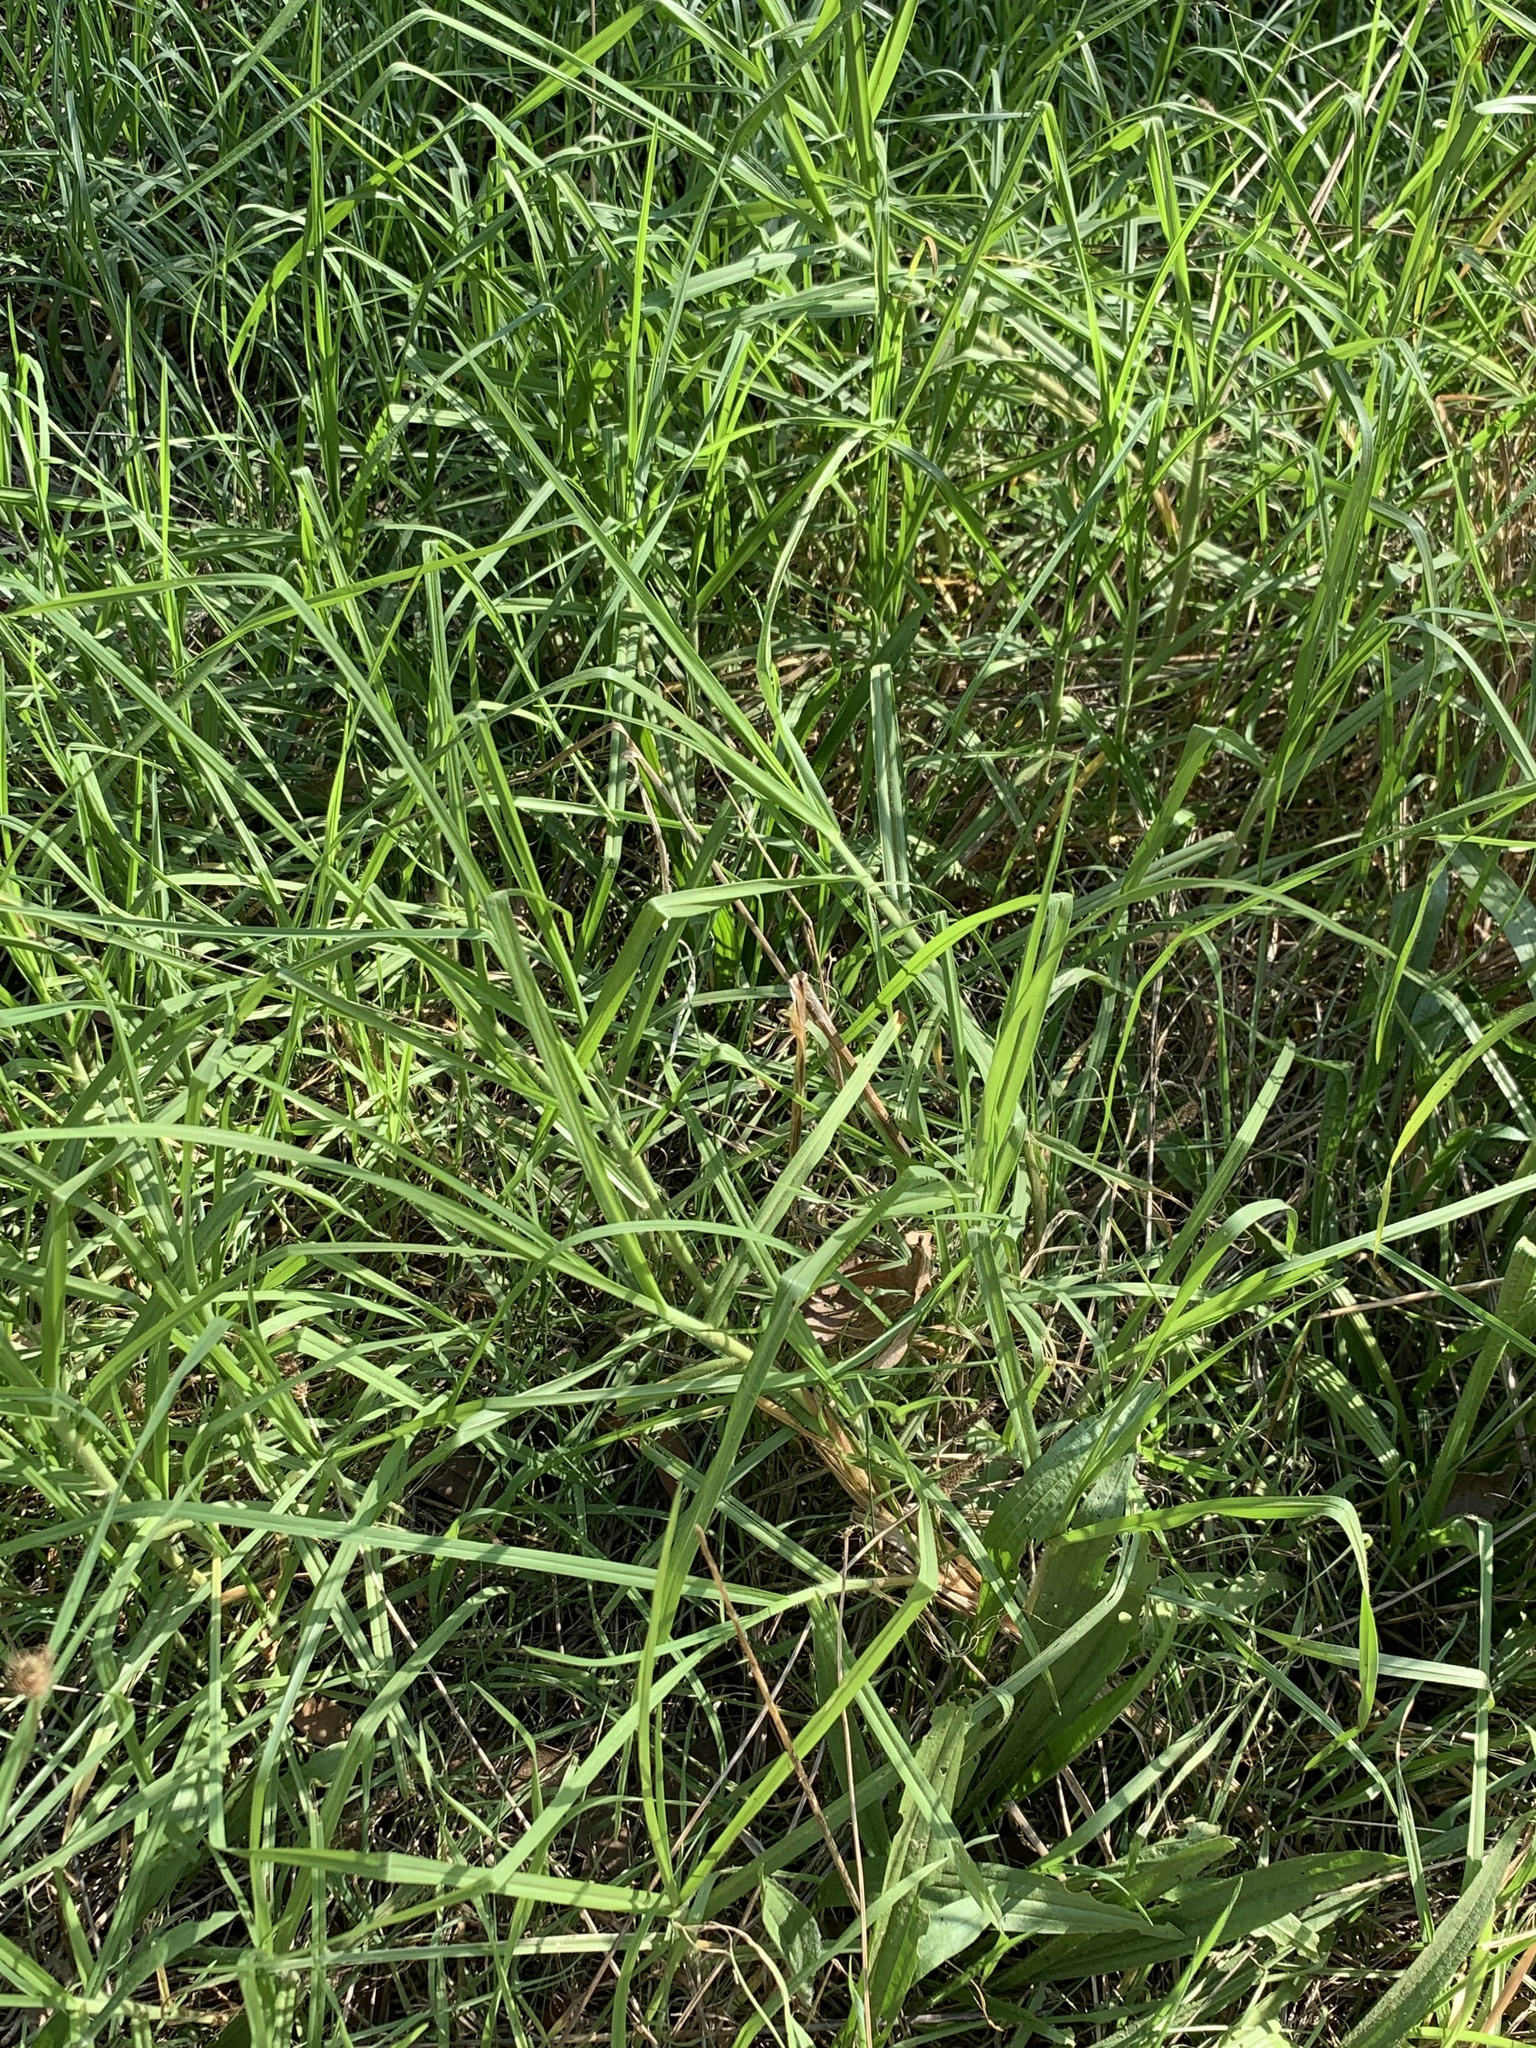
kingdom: Plantae
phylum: Tracheophyta
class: Liliopsida
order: Poales
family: Poaceae
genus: Cenchrus
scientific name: Cenchrus clandestinus
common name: Kikuyugrass
